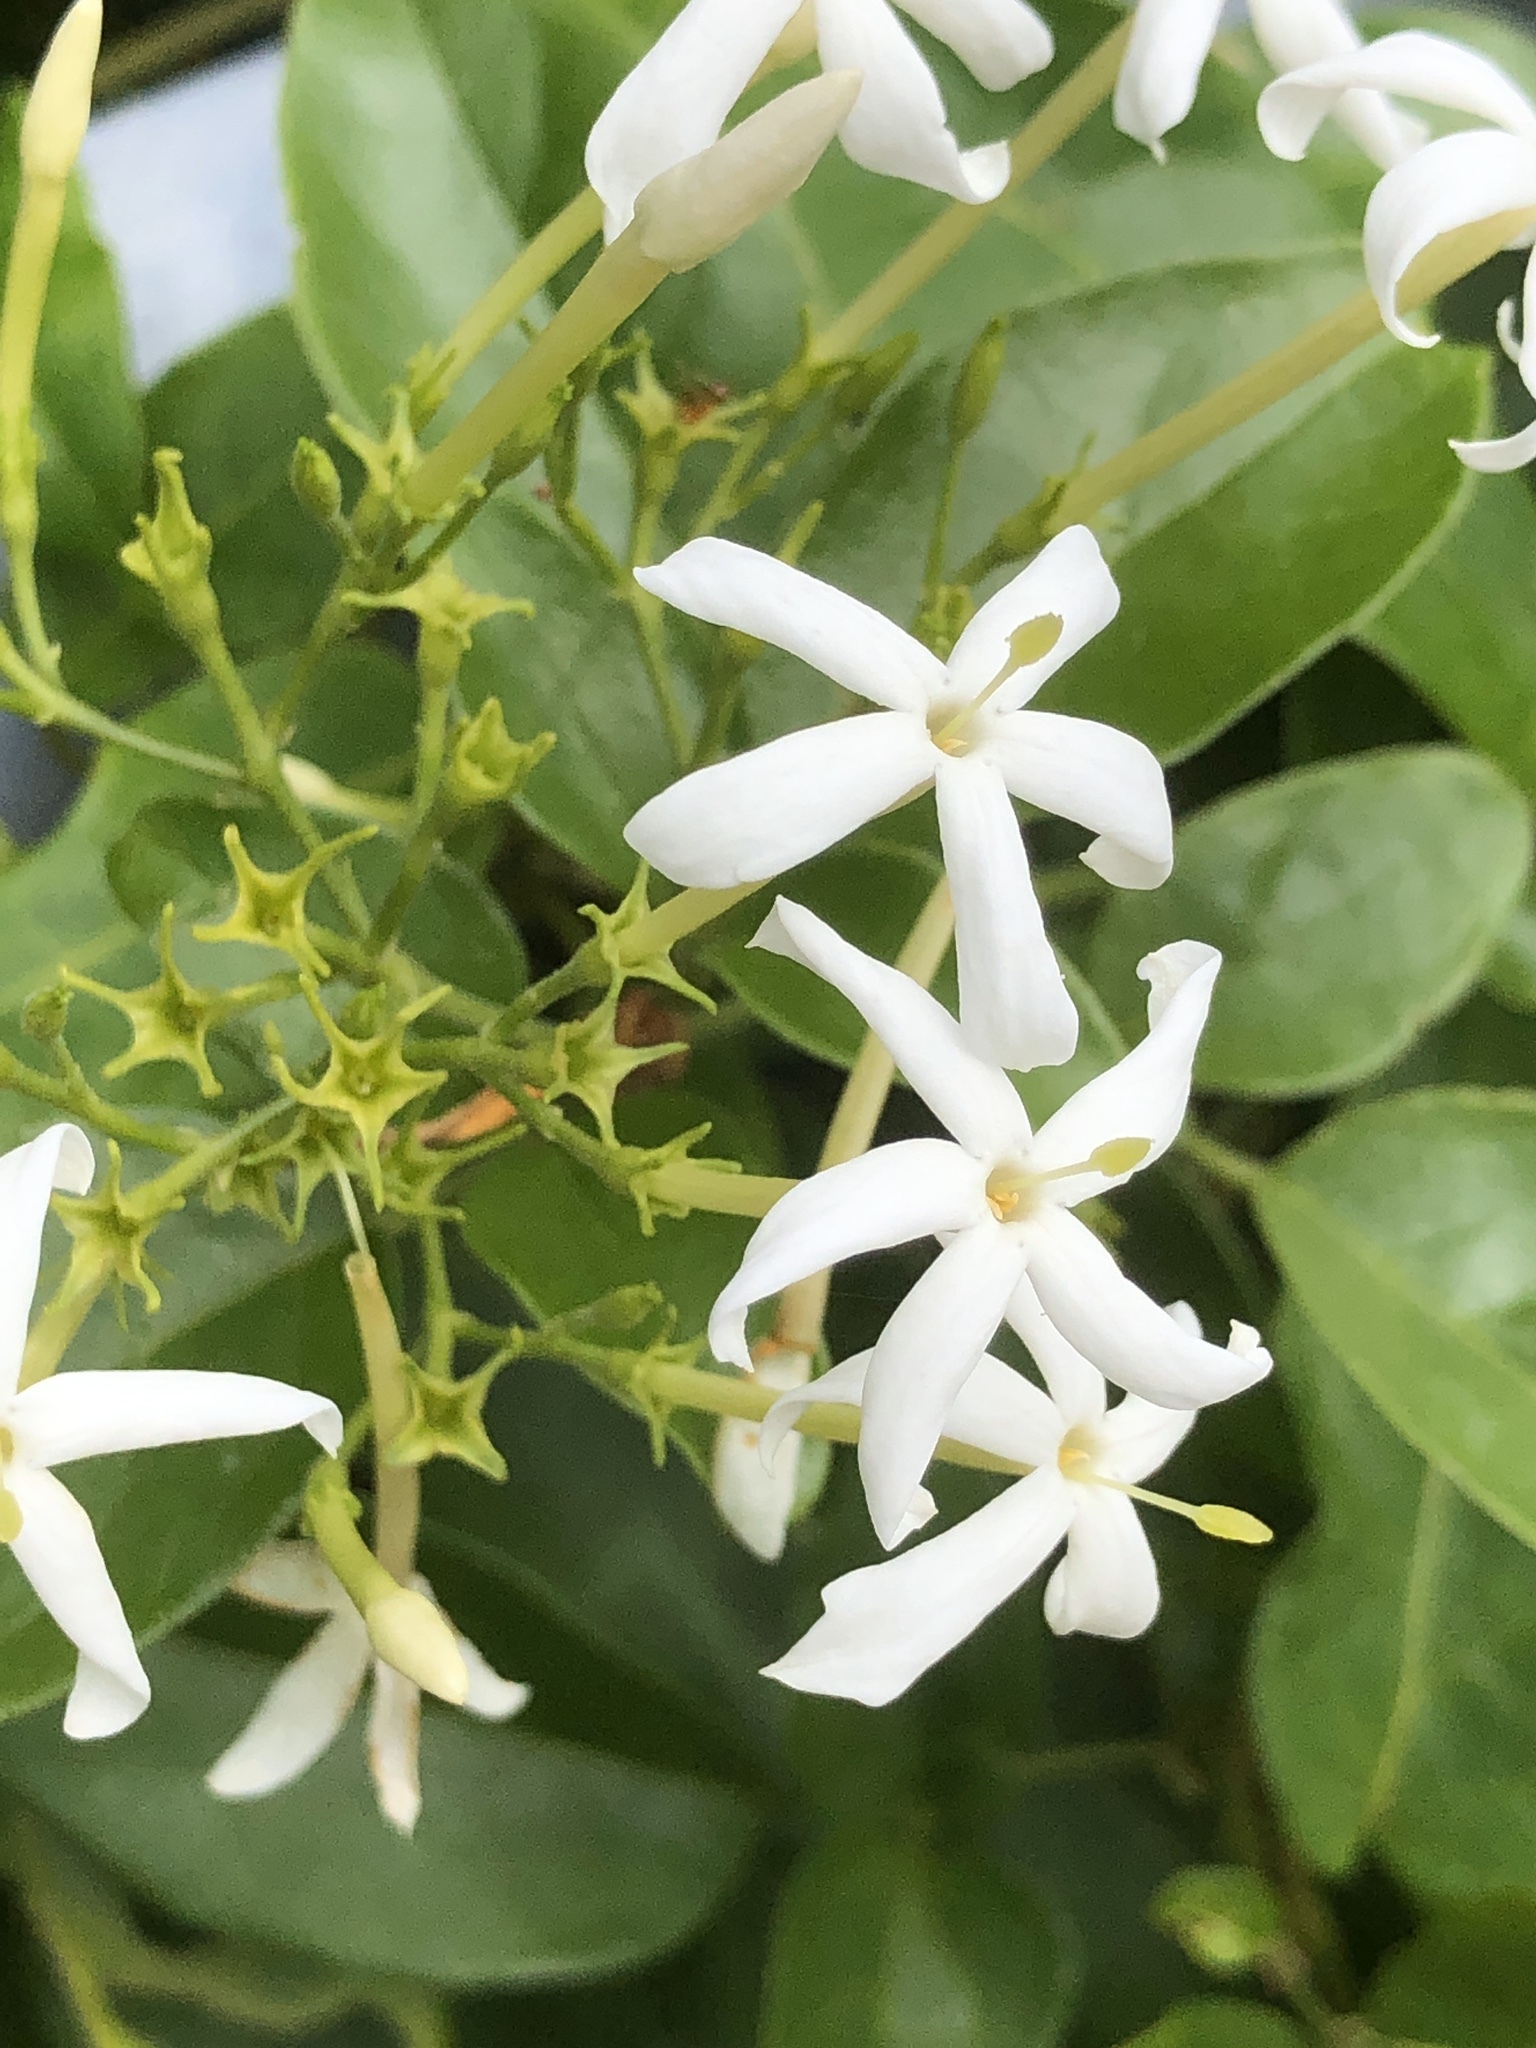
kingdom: Plantae
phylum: Tracheophyta
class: Magnoliopsida
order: Lamiales
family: Oleaceae
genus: Jasminum
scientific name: Jasminum lanceolaria
